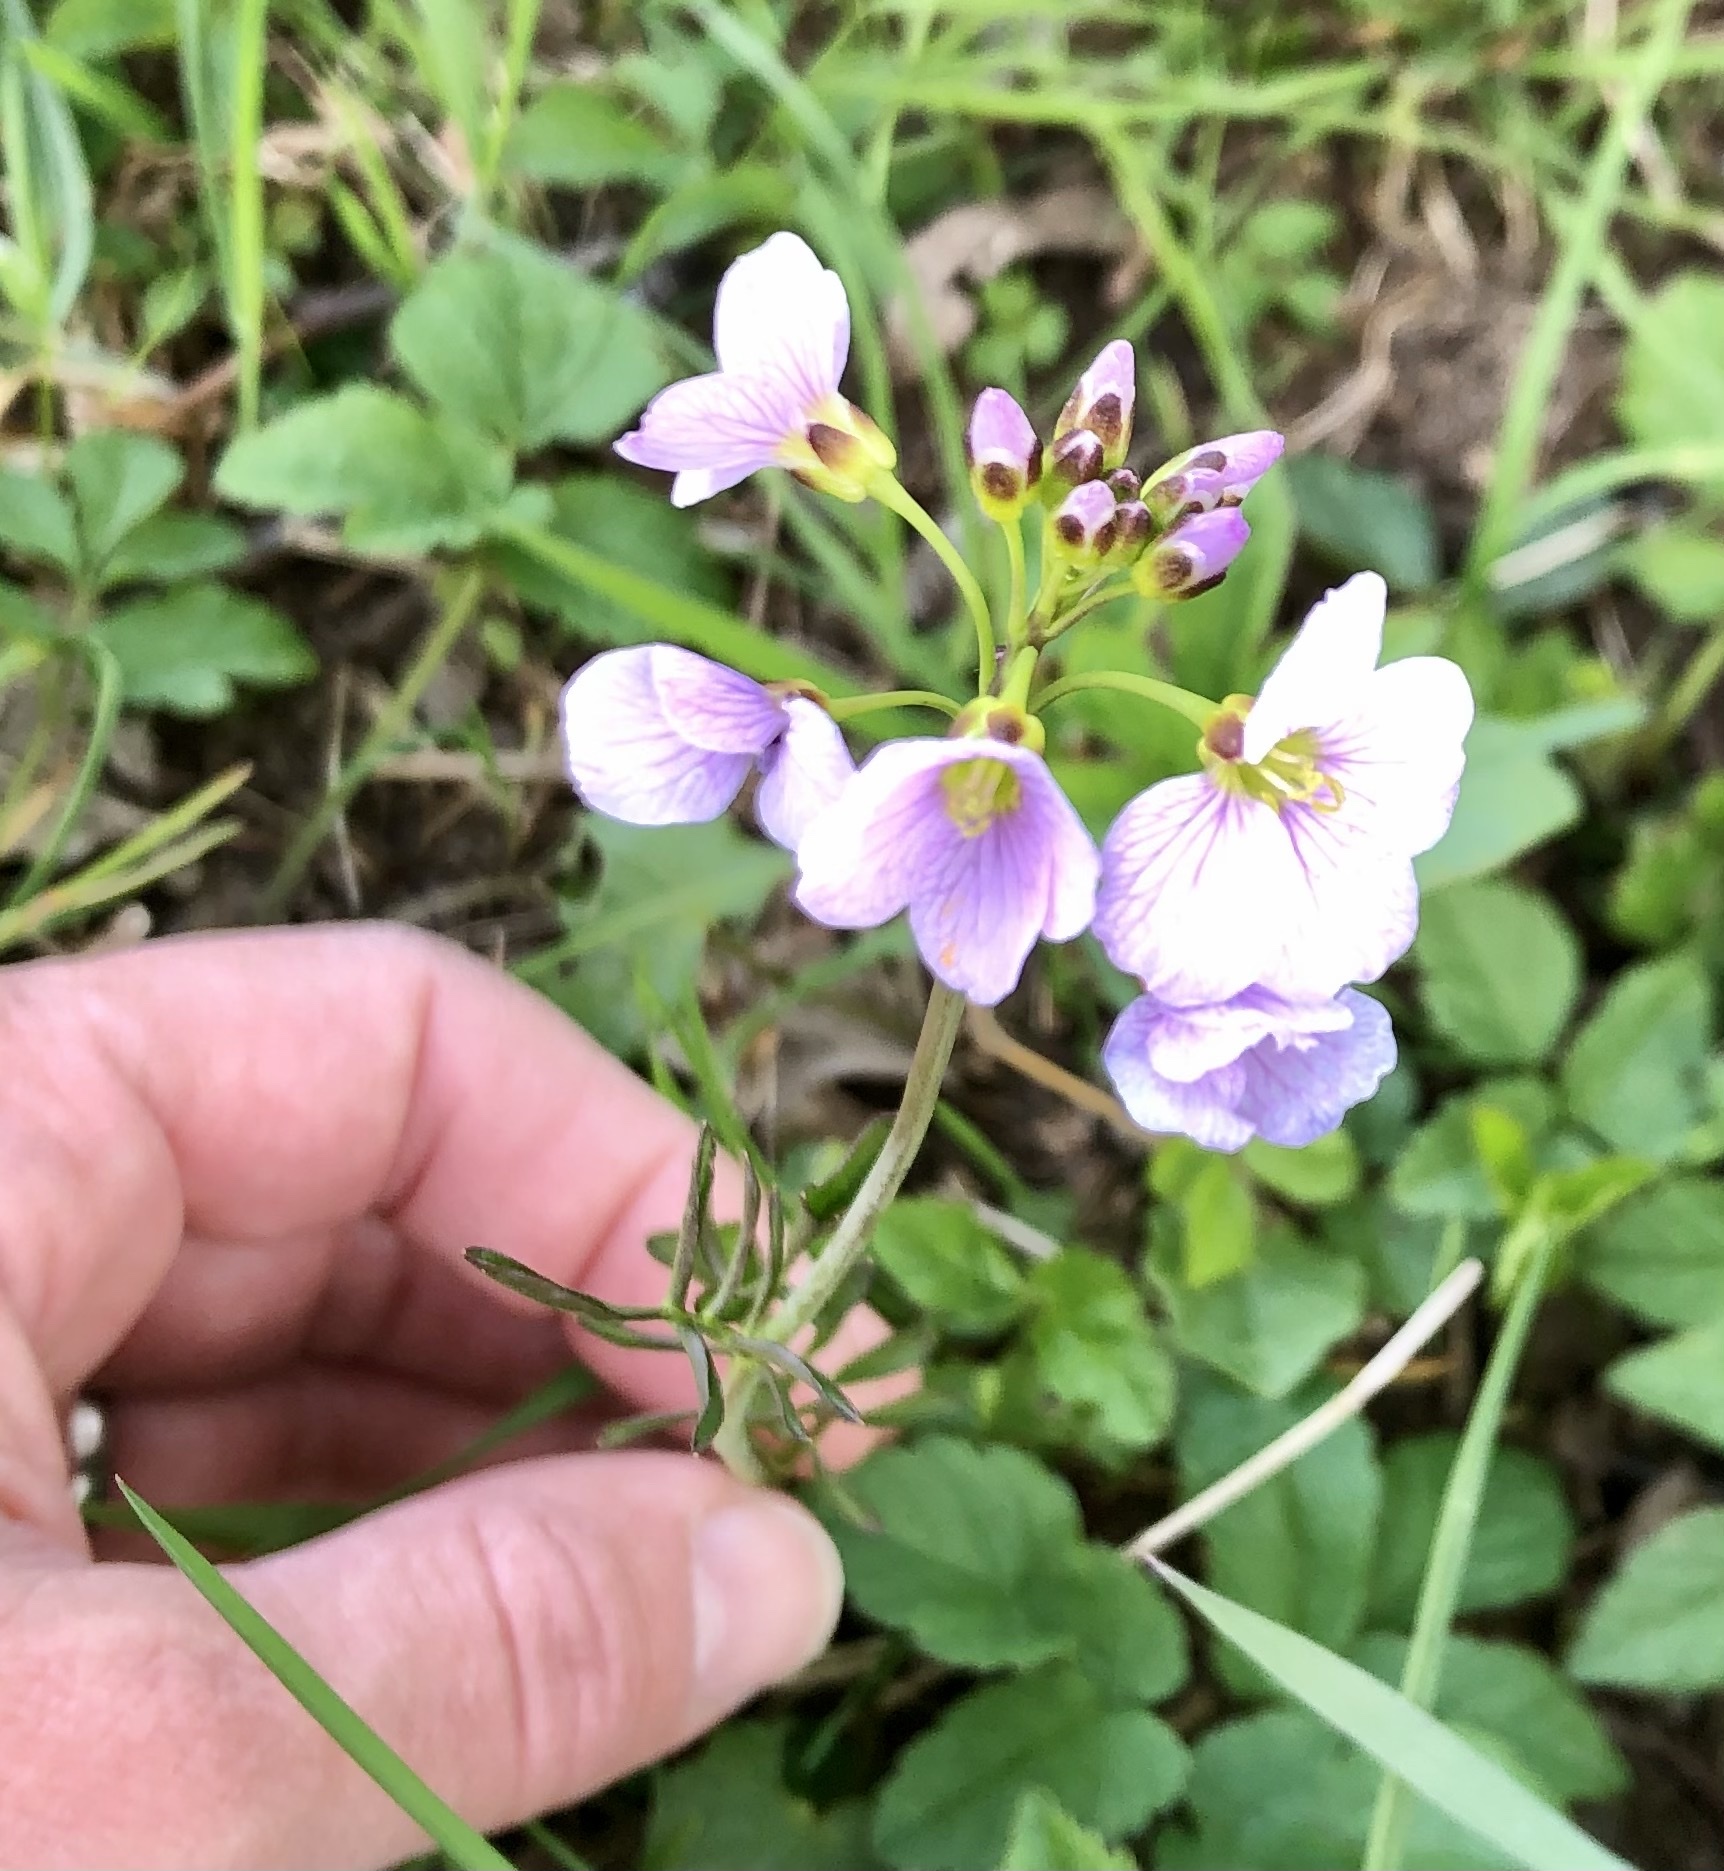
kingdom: Plantae
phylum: Tracheophyta
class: Magnoliopsida
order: Brassicales
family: Brassicaceae
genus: Cardamine
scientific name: Cardamine pratensis
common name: Cuckoo flower
